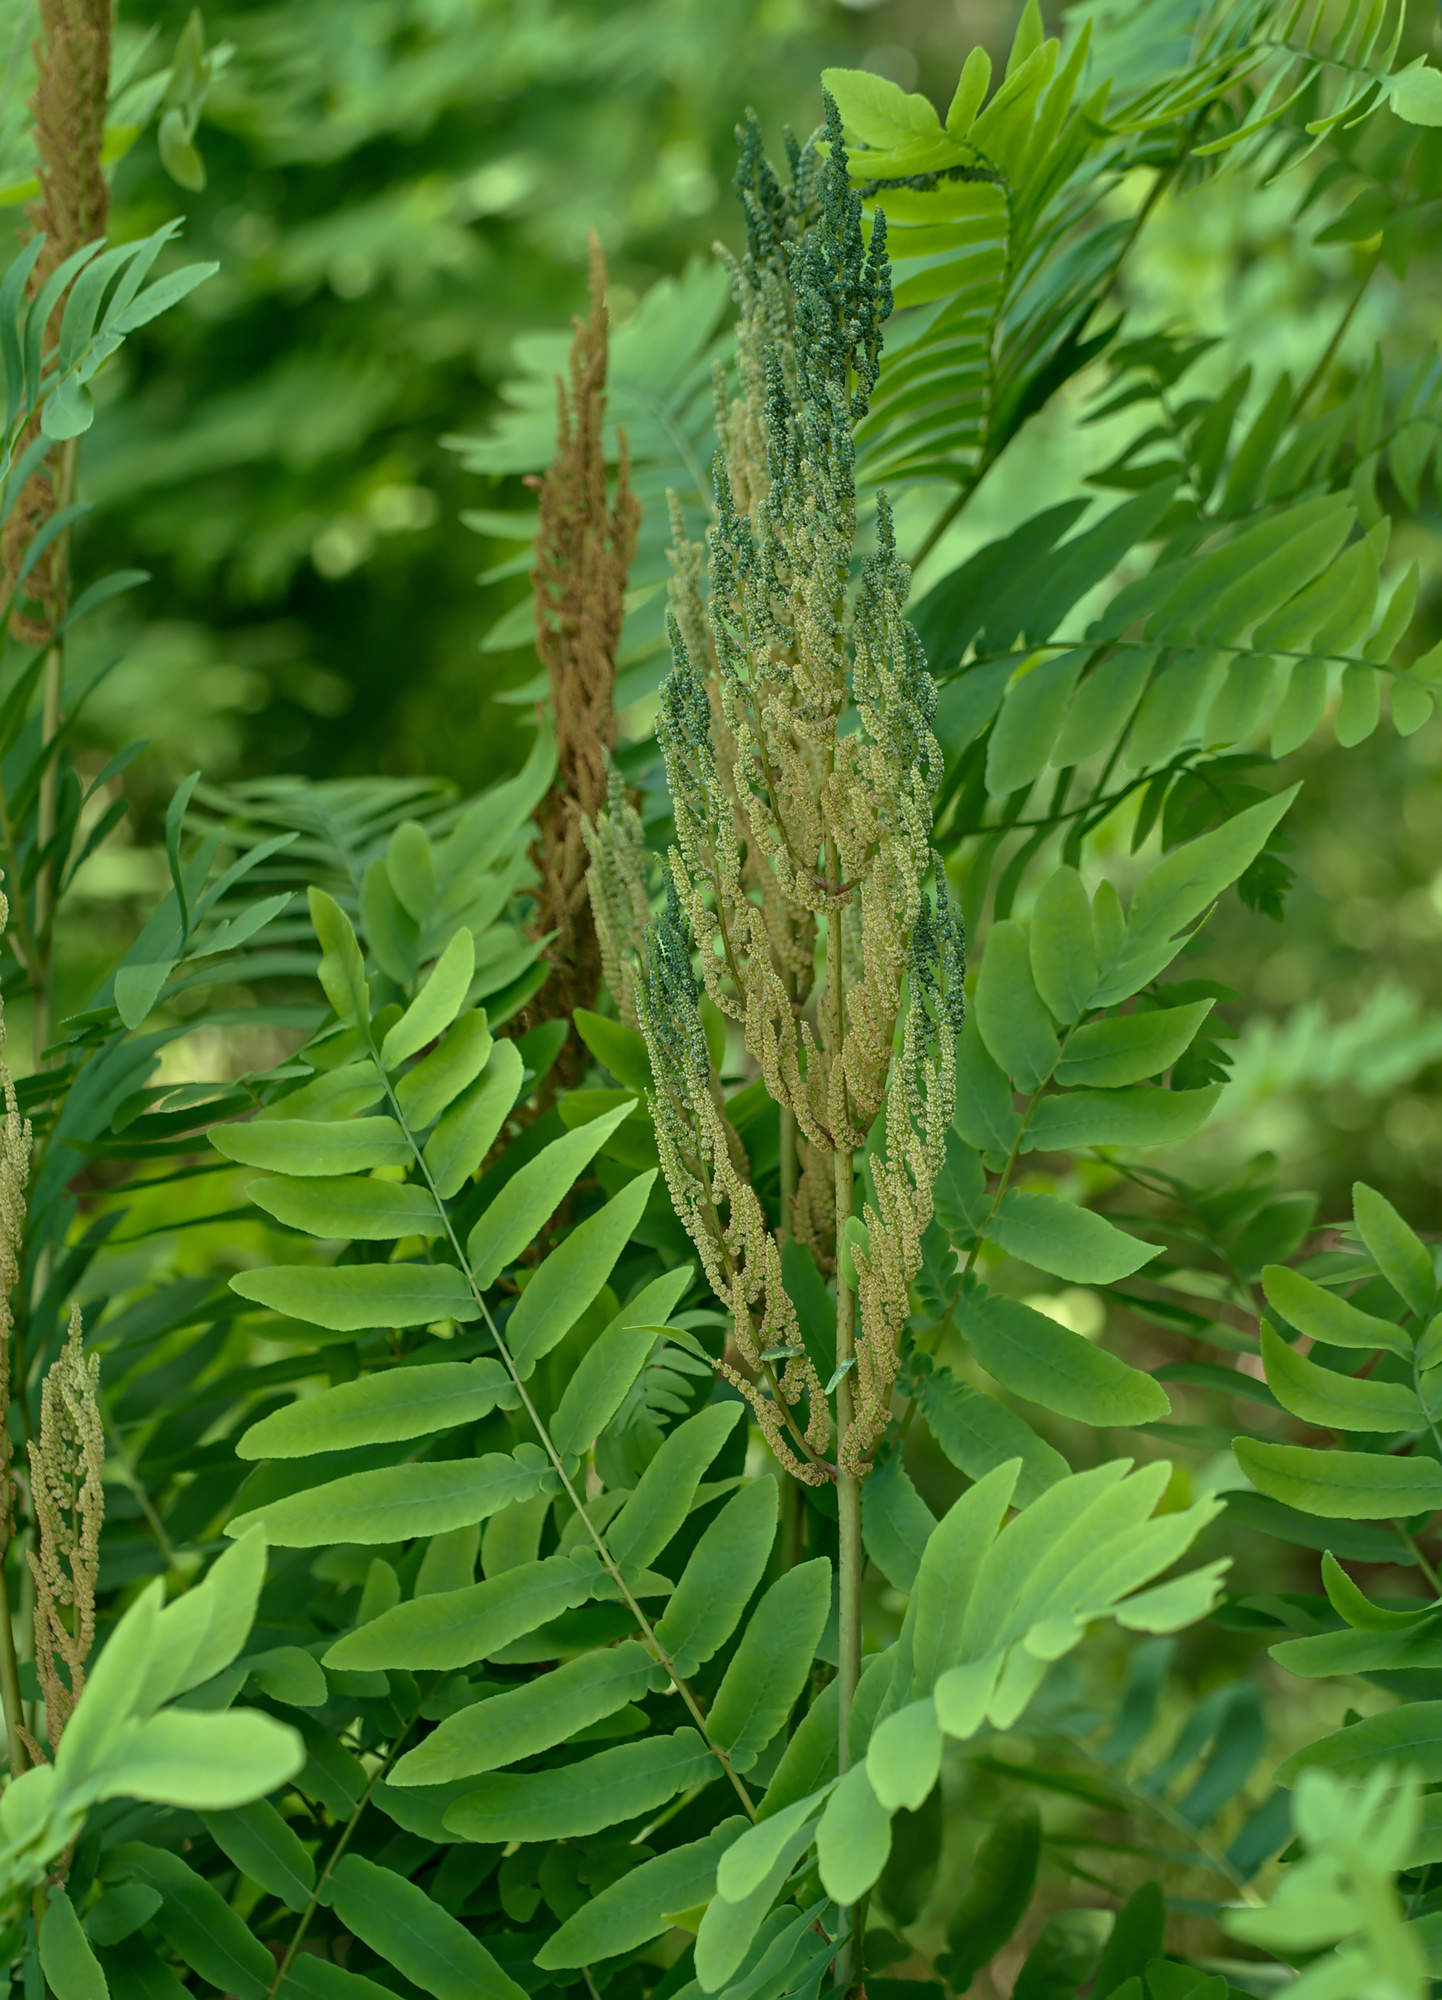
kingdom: Plantae
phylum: Tracheophyta
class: Polypodiopsida
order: Osmundales
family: Osmundaceae
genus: Osmunda
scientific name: Osmunda regalis
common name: Royal fern
